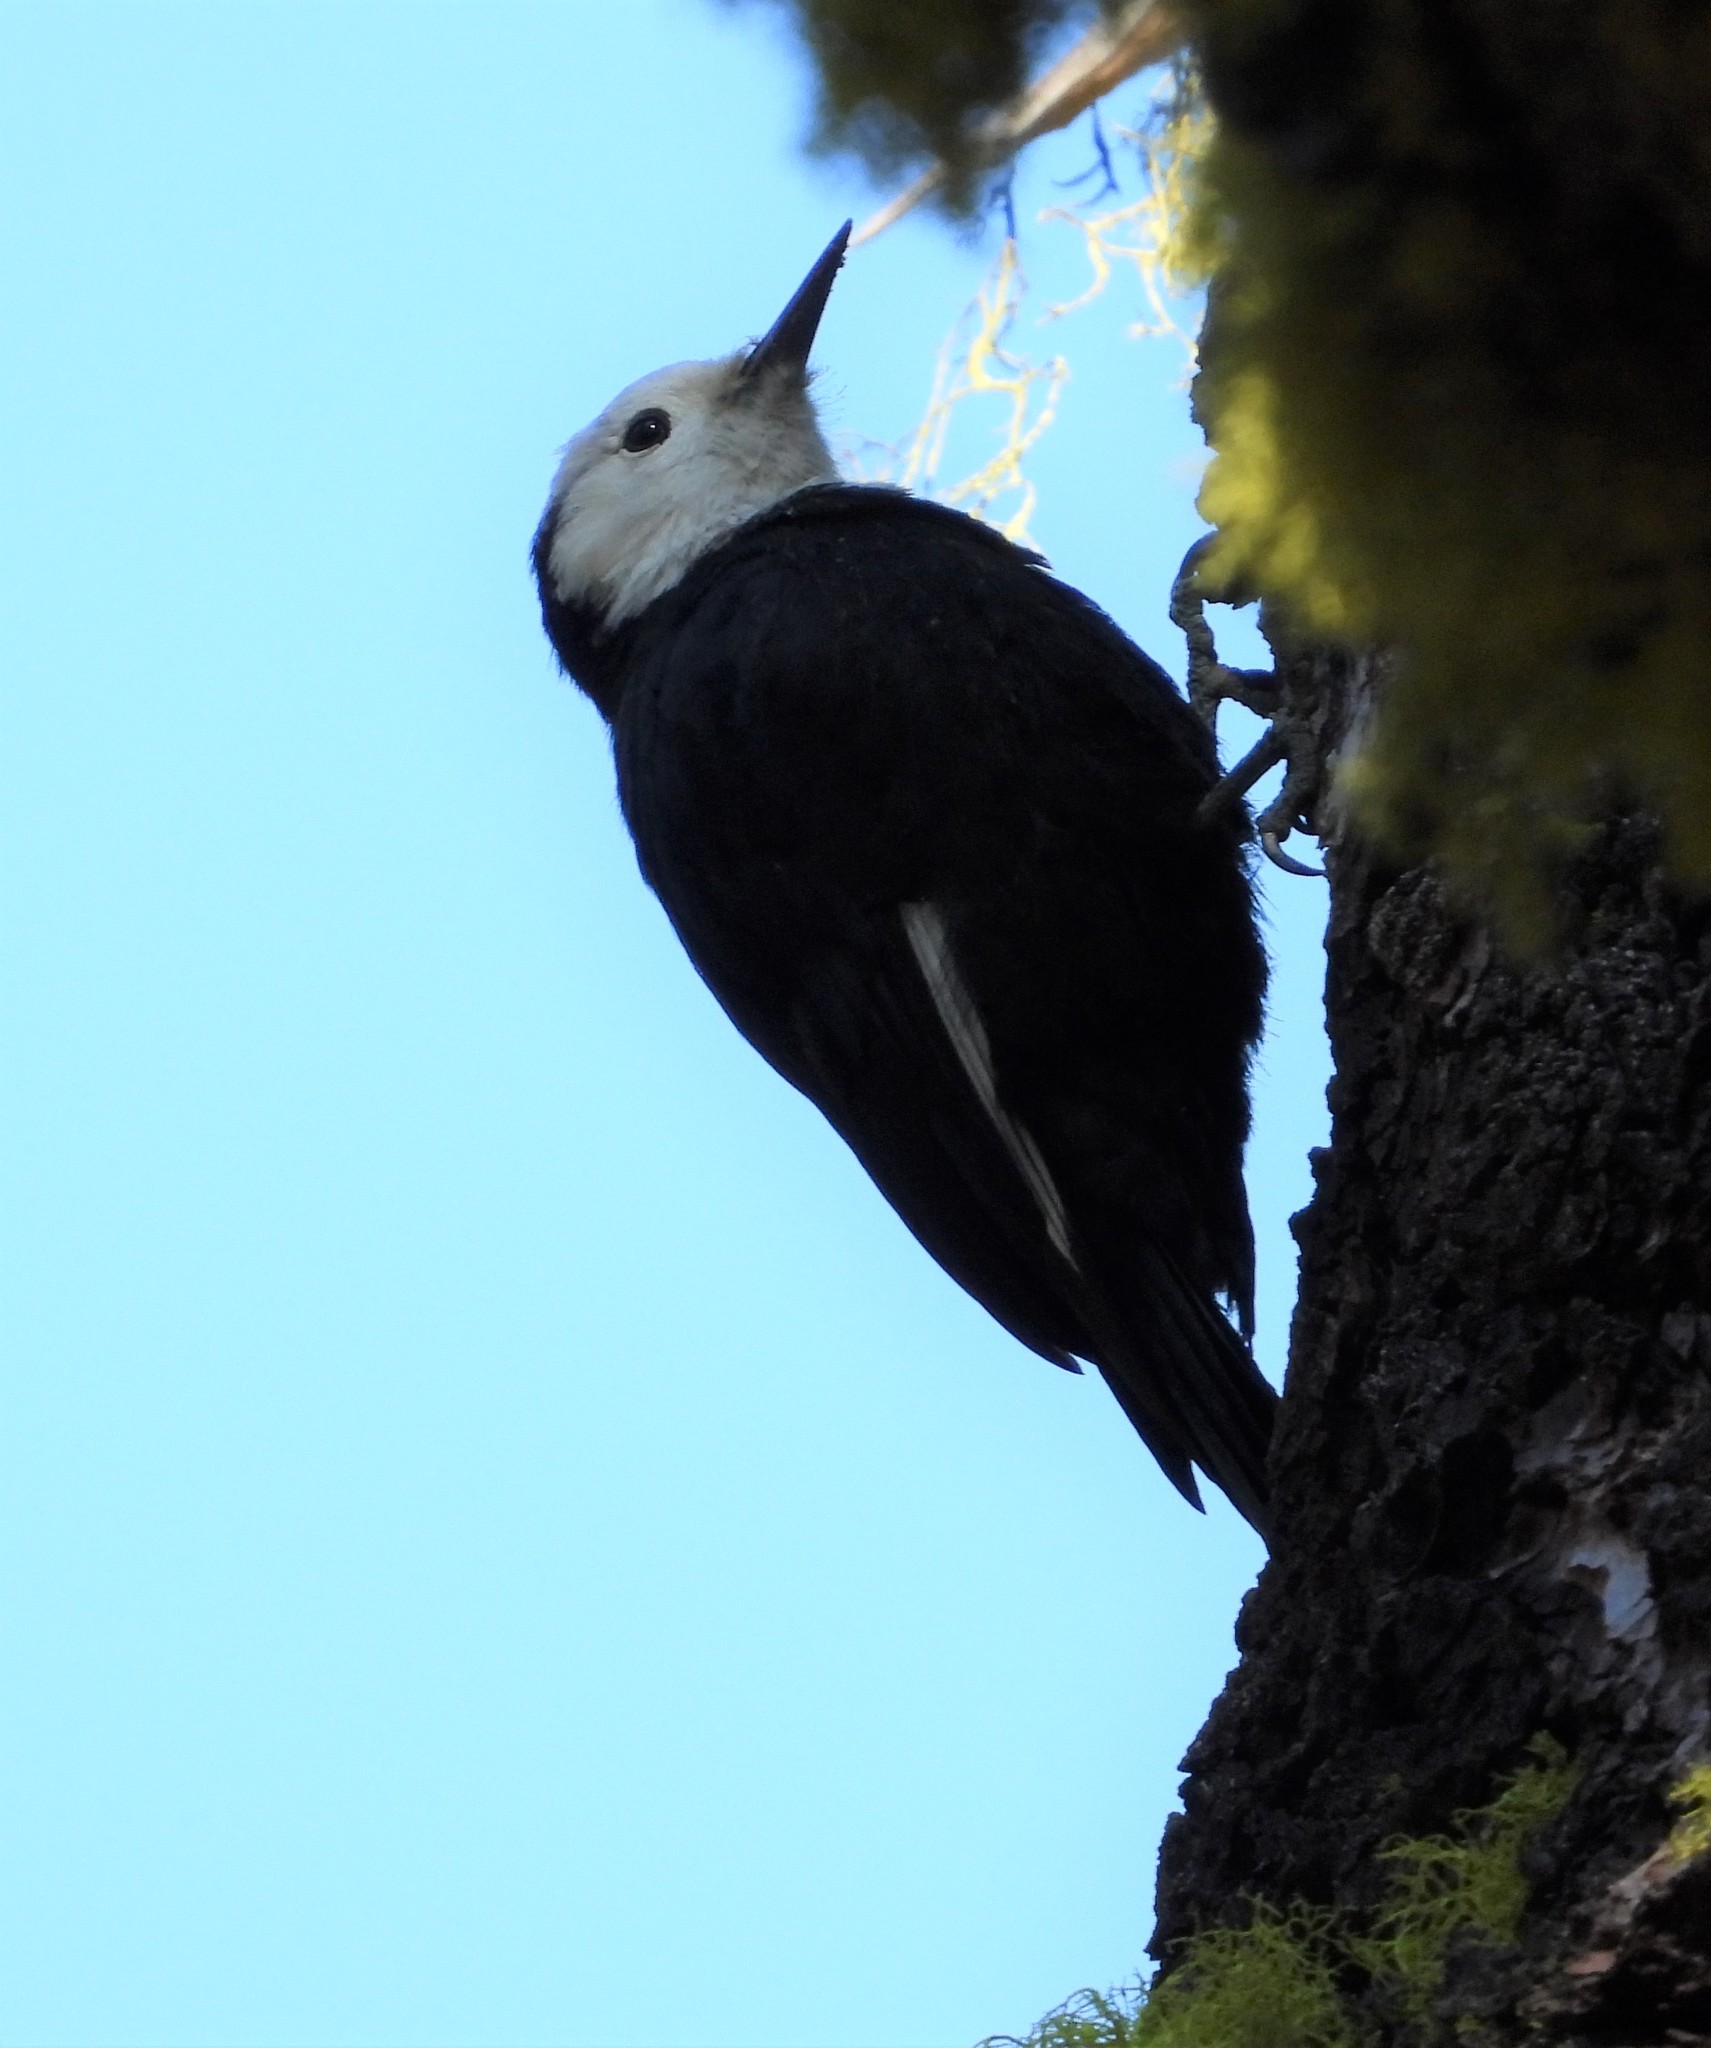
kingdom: Animalia
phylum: Chordata
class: Aves
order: Piciformes
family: Picidae
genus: Leuconotopicus
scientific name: Leuconotopicus albolarvatus
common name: White-headed woodpecker
